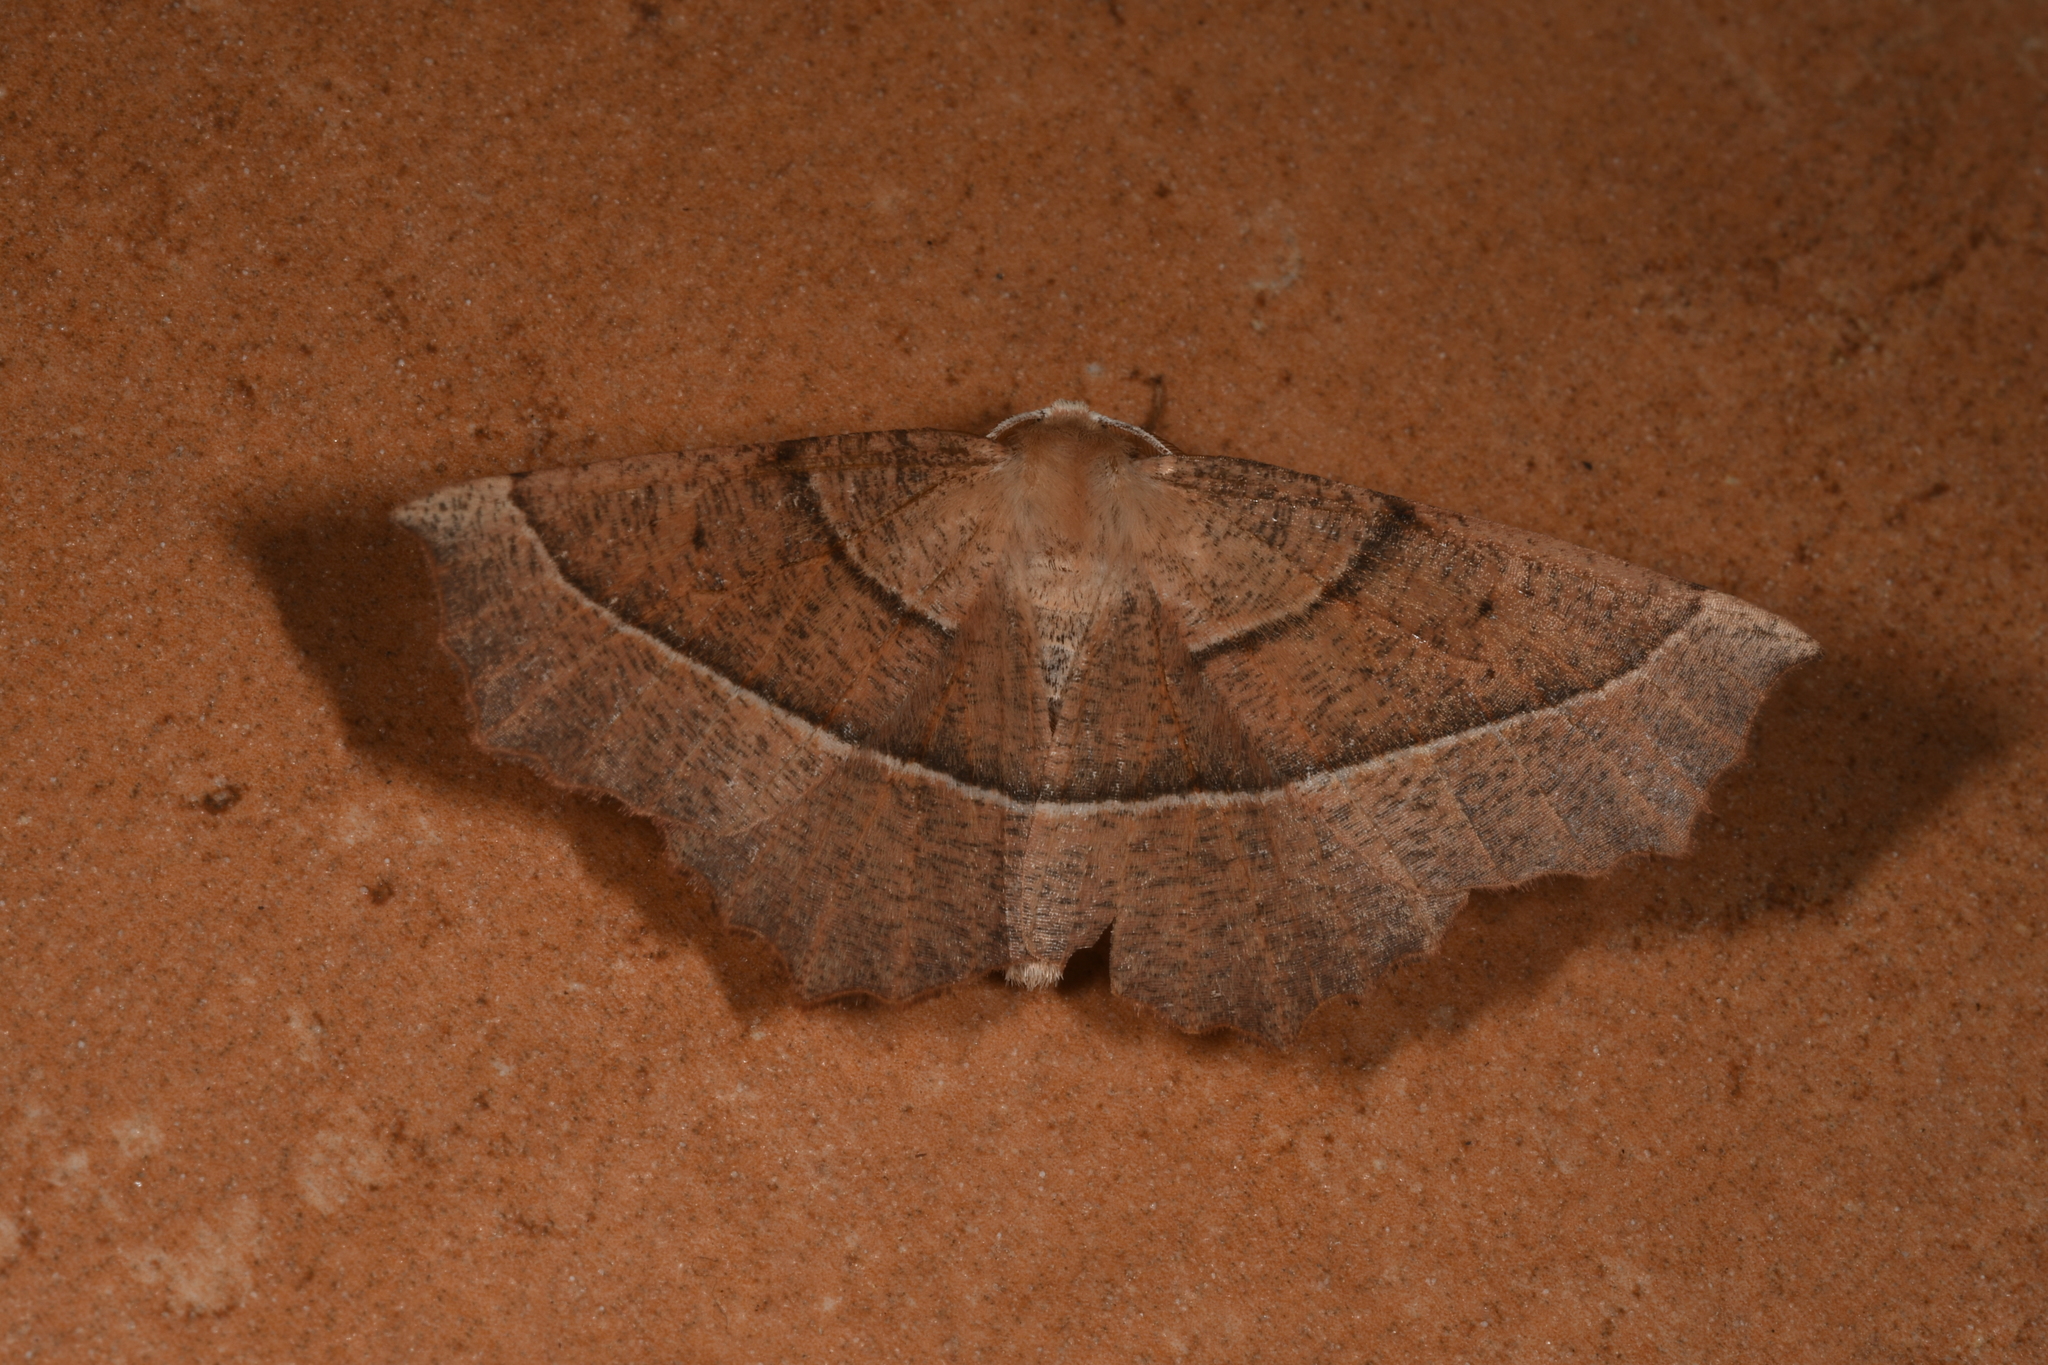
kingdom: Animalia
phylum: Arthropoda
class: Insecta
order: Lepidoptera
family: Geometridae
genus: Gerinia
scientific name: Gerinia honoraria
